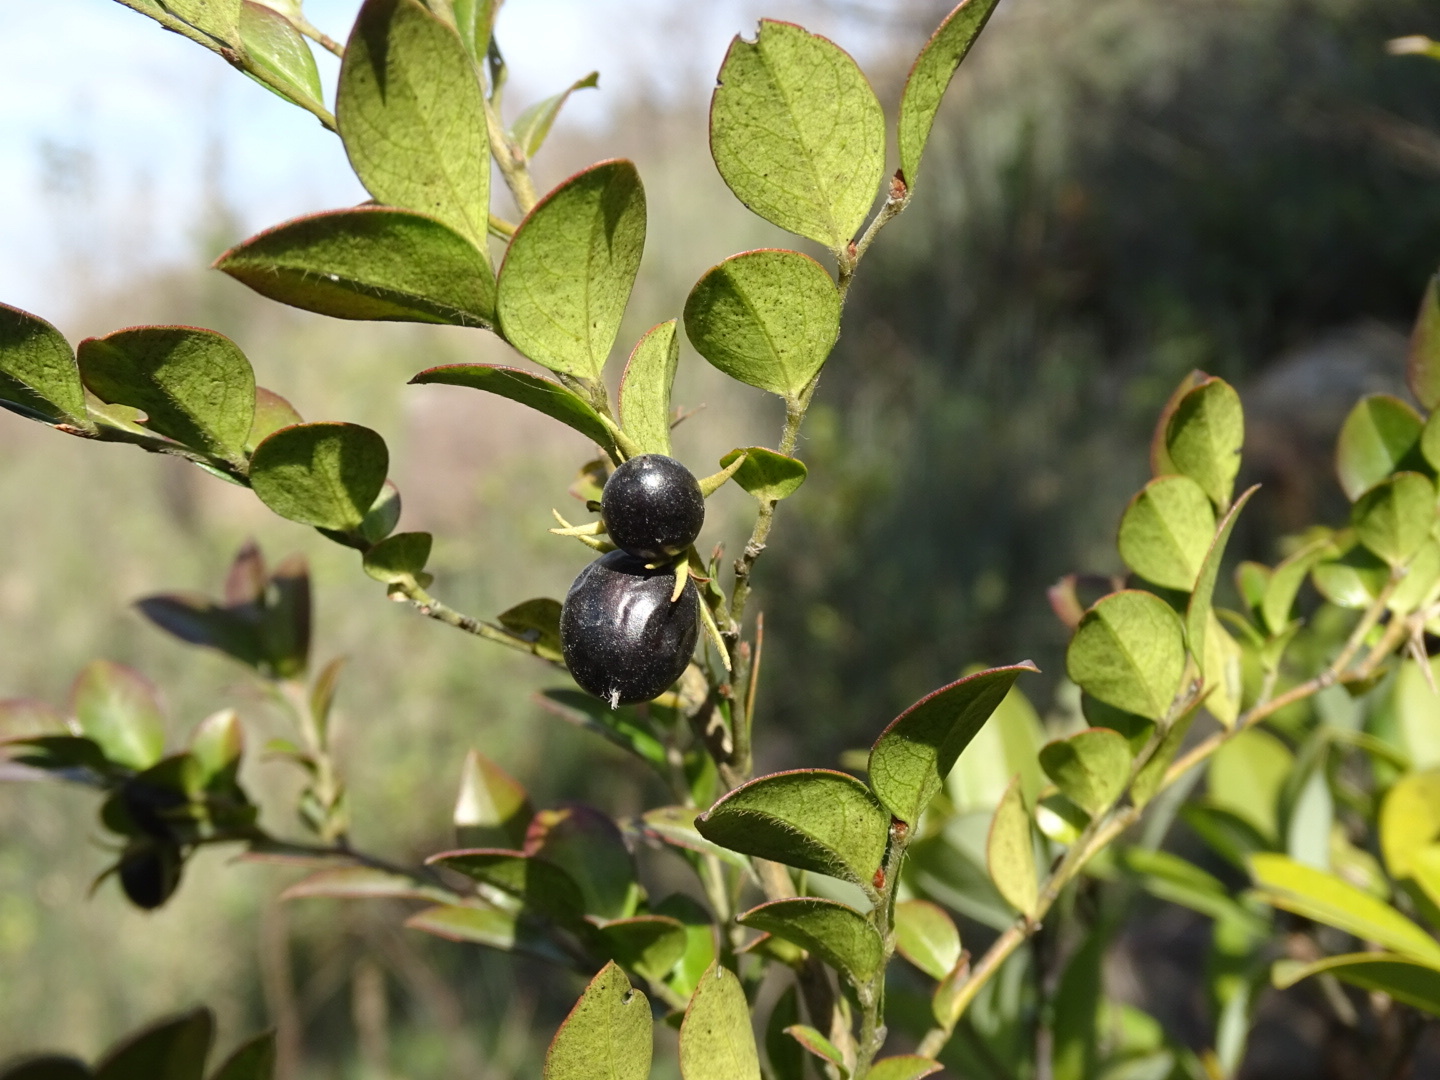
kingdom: Plantae
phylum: Tracheophyta
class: Magnoliopsida
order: Ericales
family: Ebenaceae
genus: Diospyros
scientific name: Diospyros vaccinioides
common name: Small persimmon
